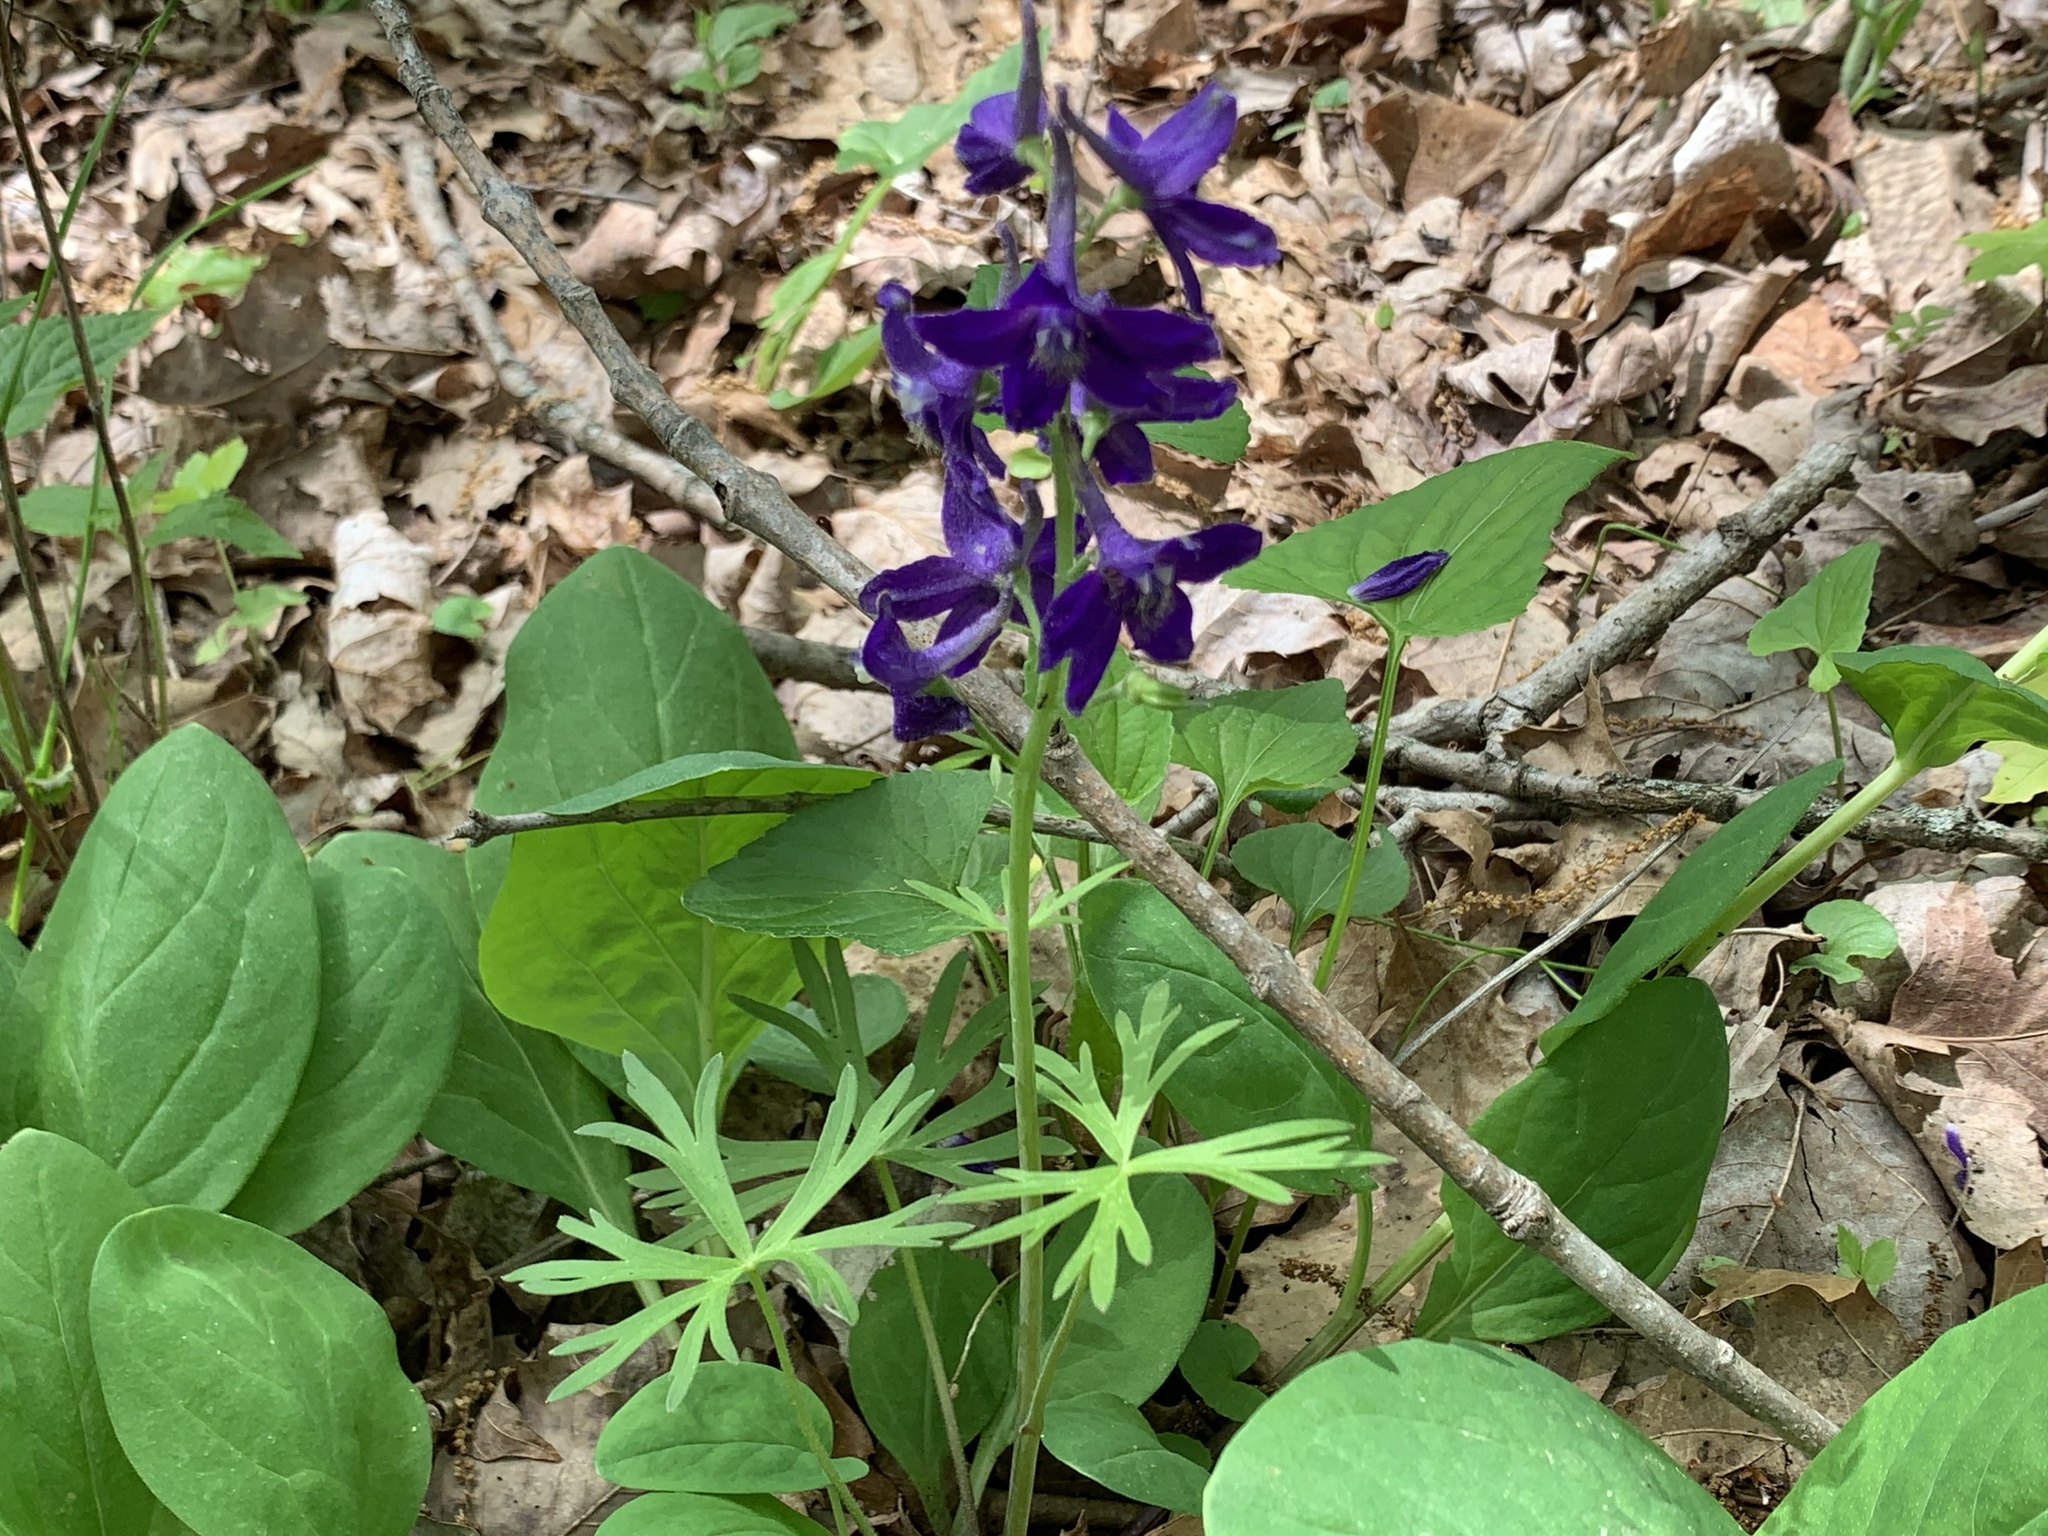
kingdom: Plantae
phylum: Tracheophyta
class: Magnoliopsida
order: Ranunculales
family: Ranunculaceae
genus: Delphinium
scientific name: Delphinium tricorne
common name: Dwarf larkspur
